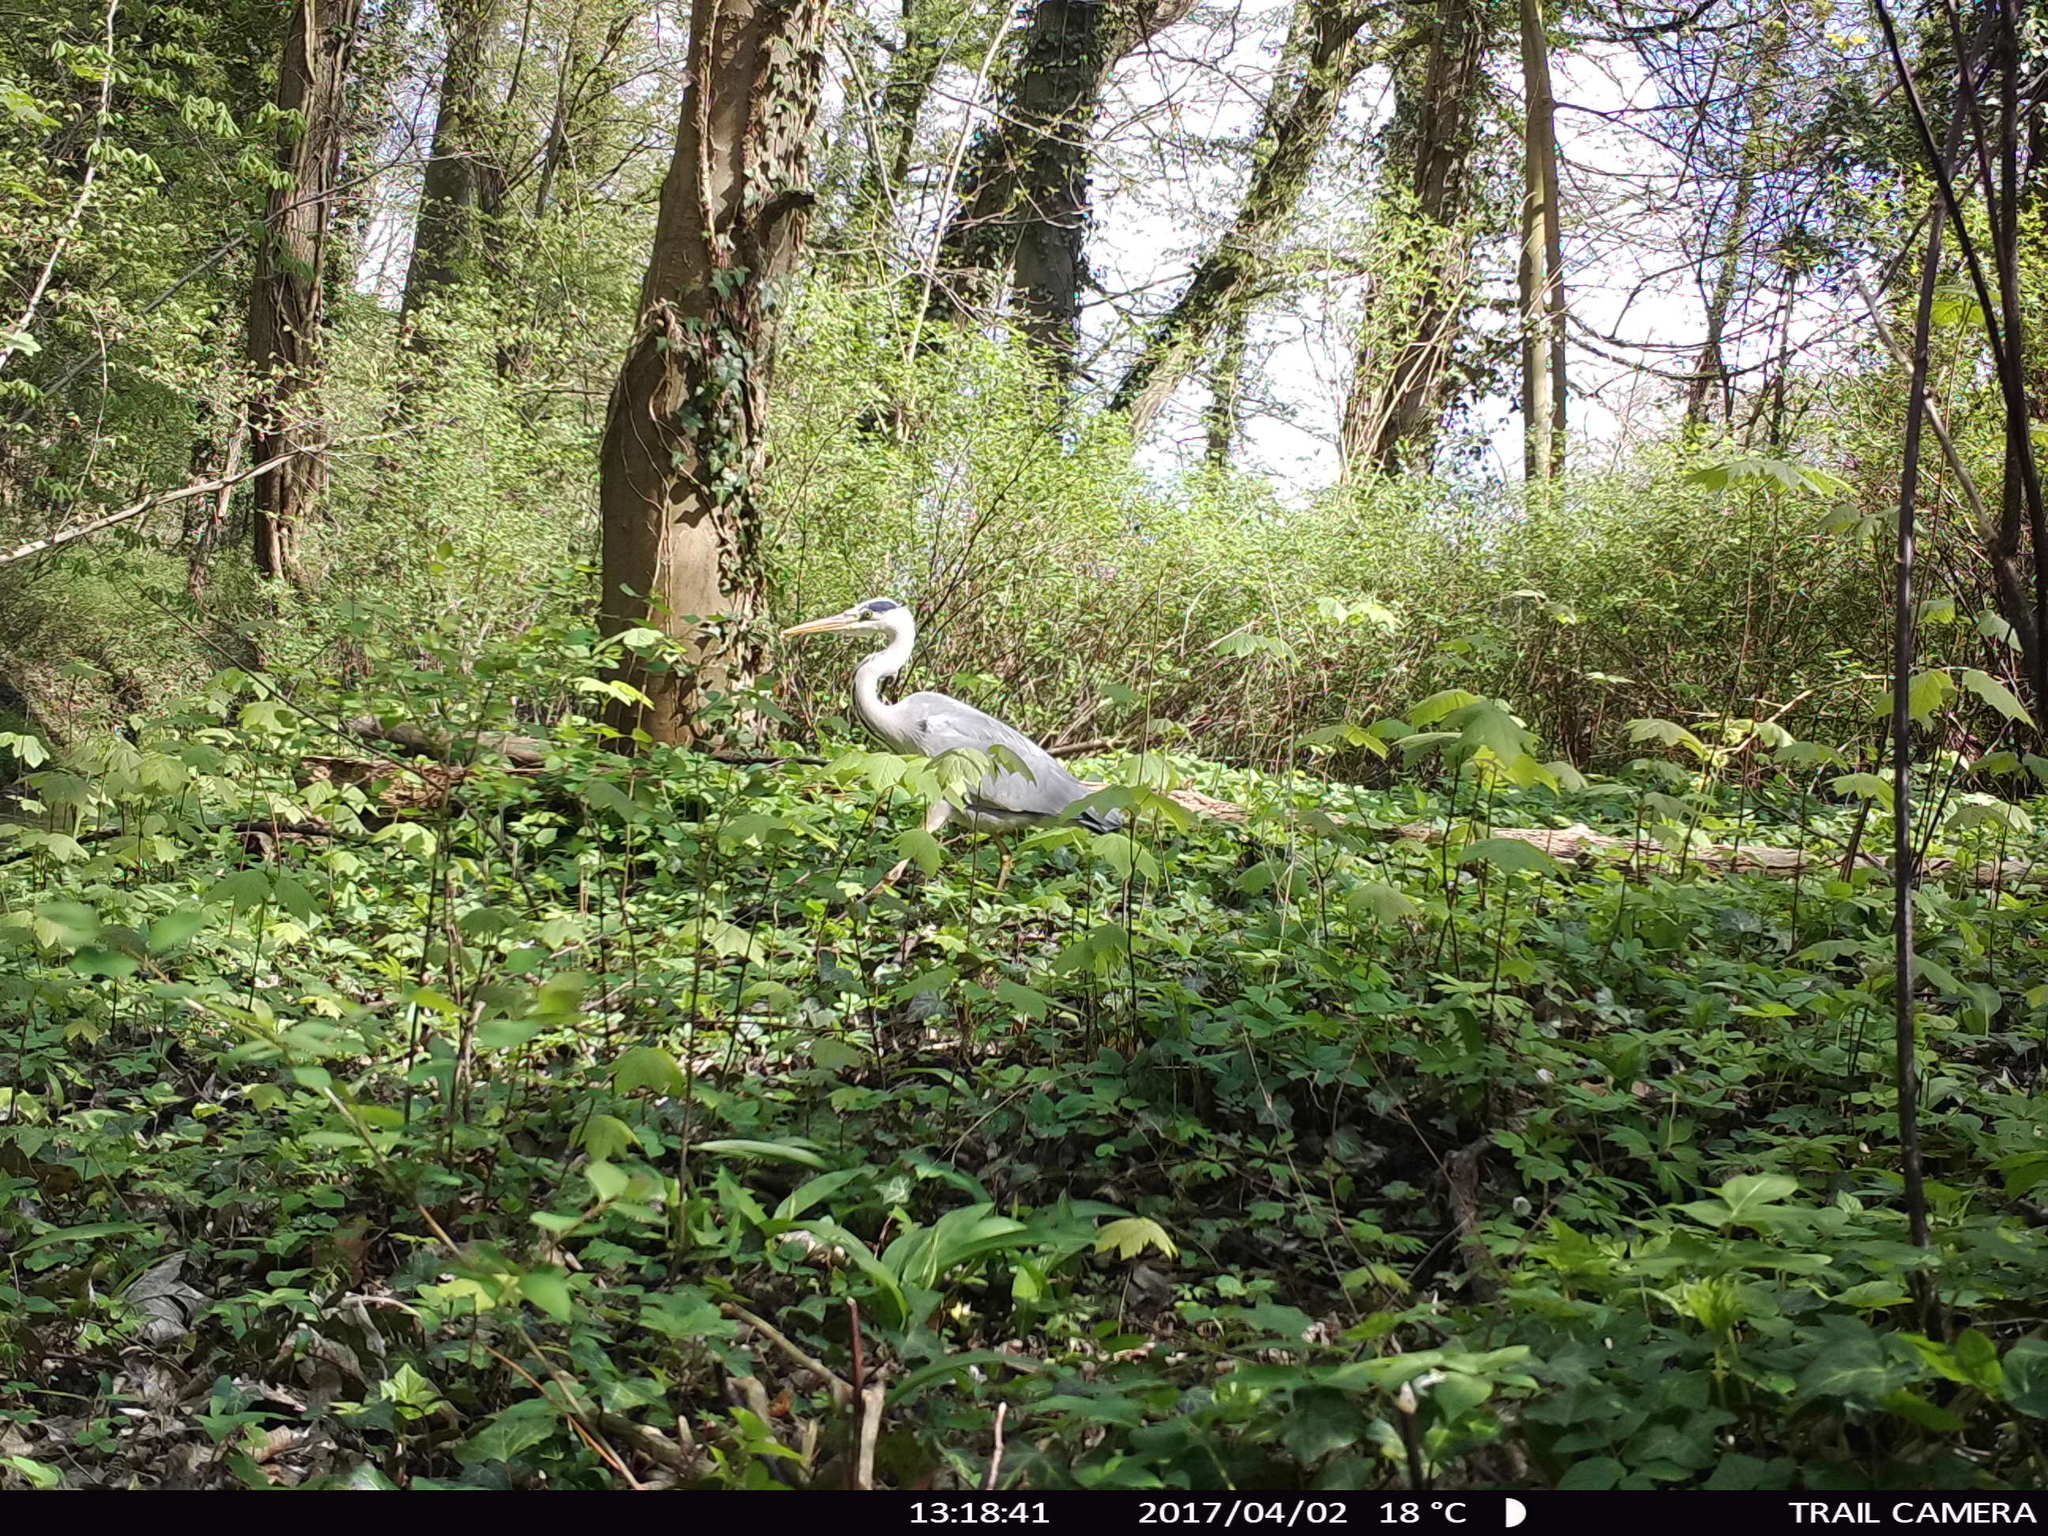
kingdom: Animalia
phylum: Chordata
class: Aves
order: Pelecaniformes
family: Ardeidae
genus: Ardea
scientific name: Ardea cinerea
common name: Grey heron
